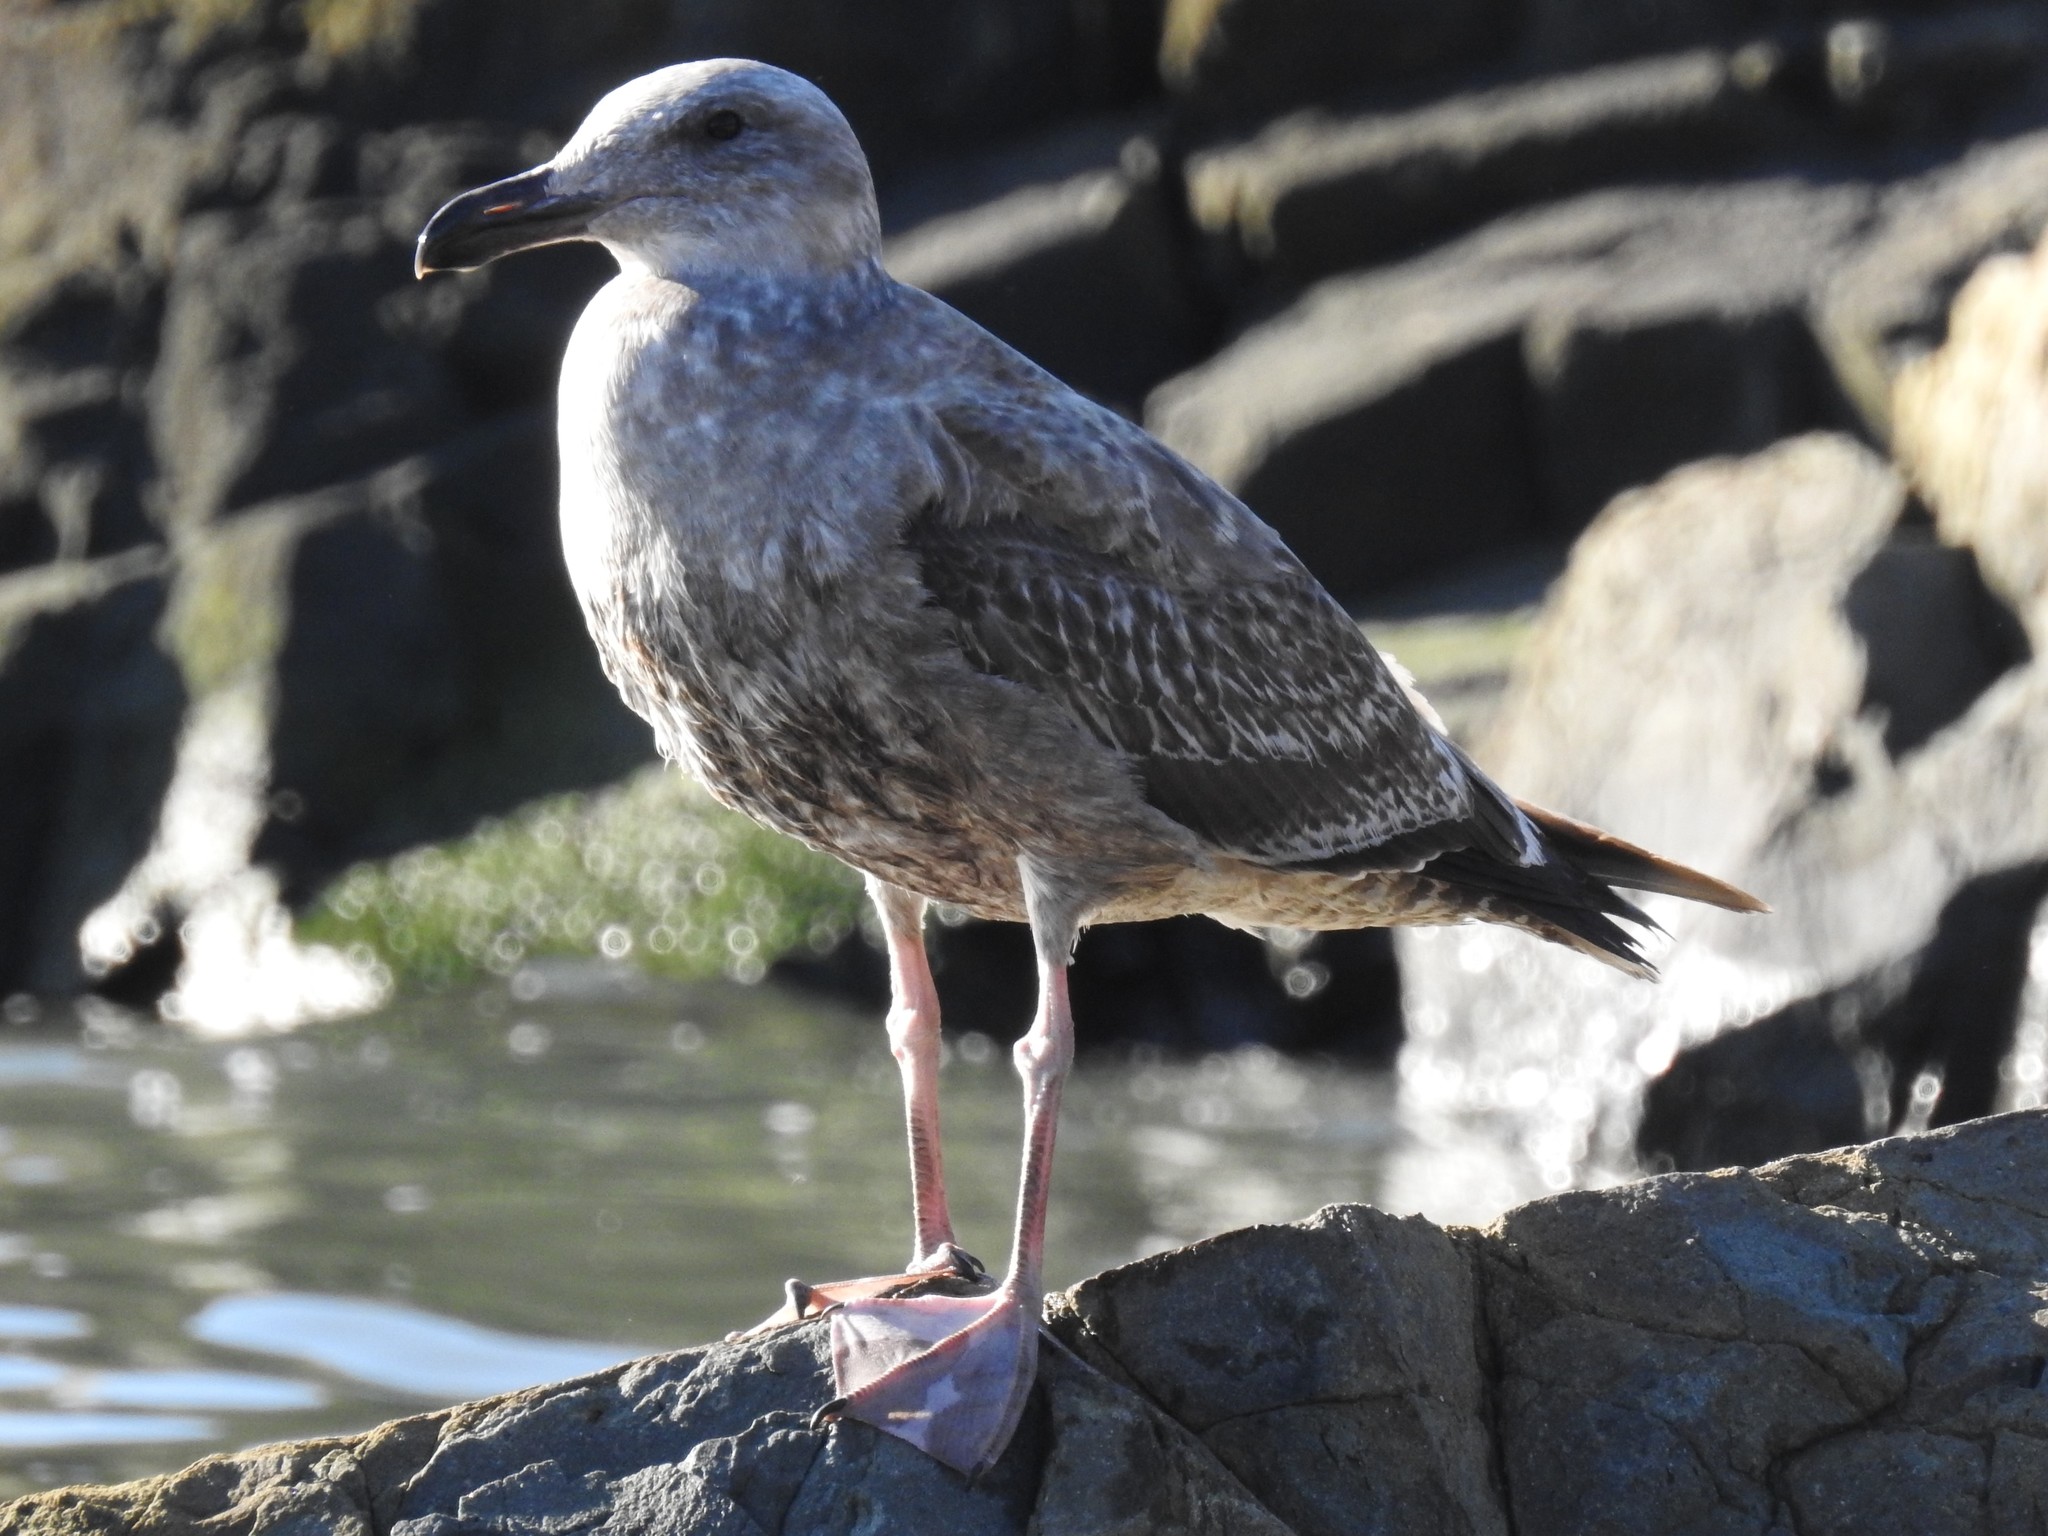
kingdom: Animalia
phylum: Chordata
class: Aves
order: Charadriiformes
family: Laridae
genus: Larus
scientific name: Larus occidentalis
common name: Western gull
